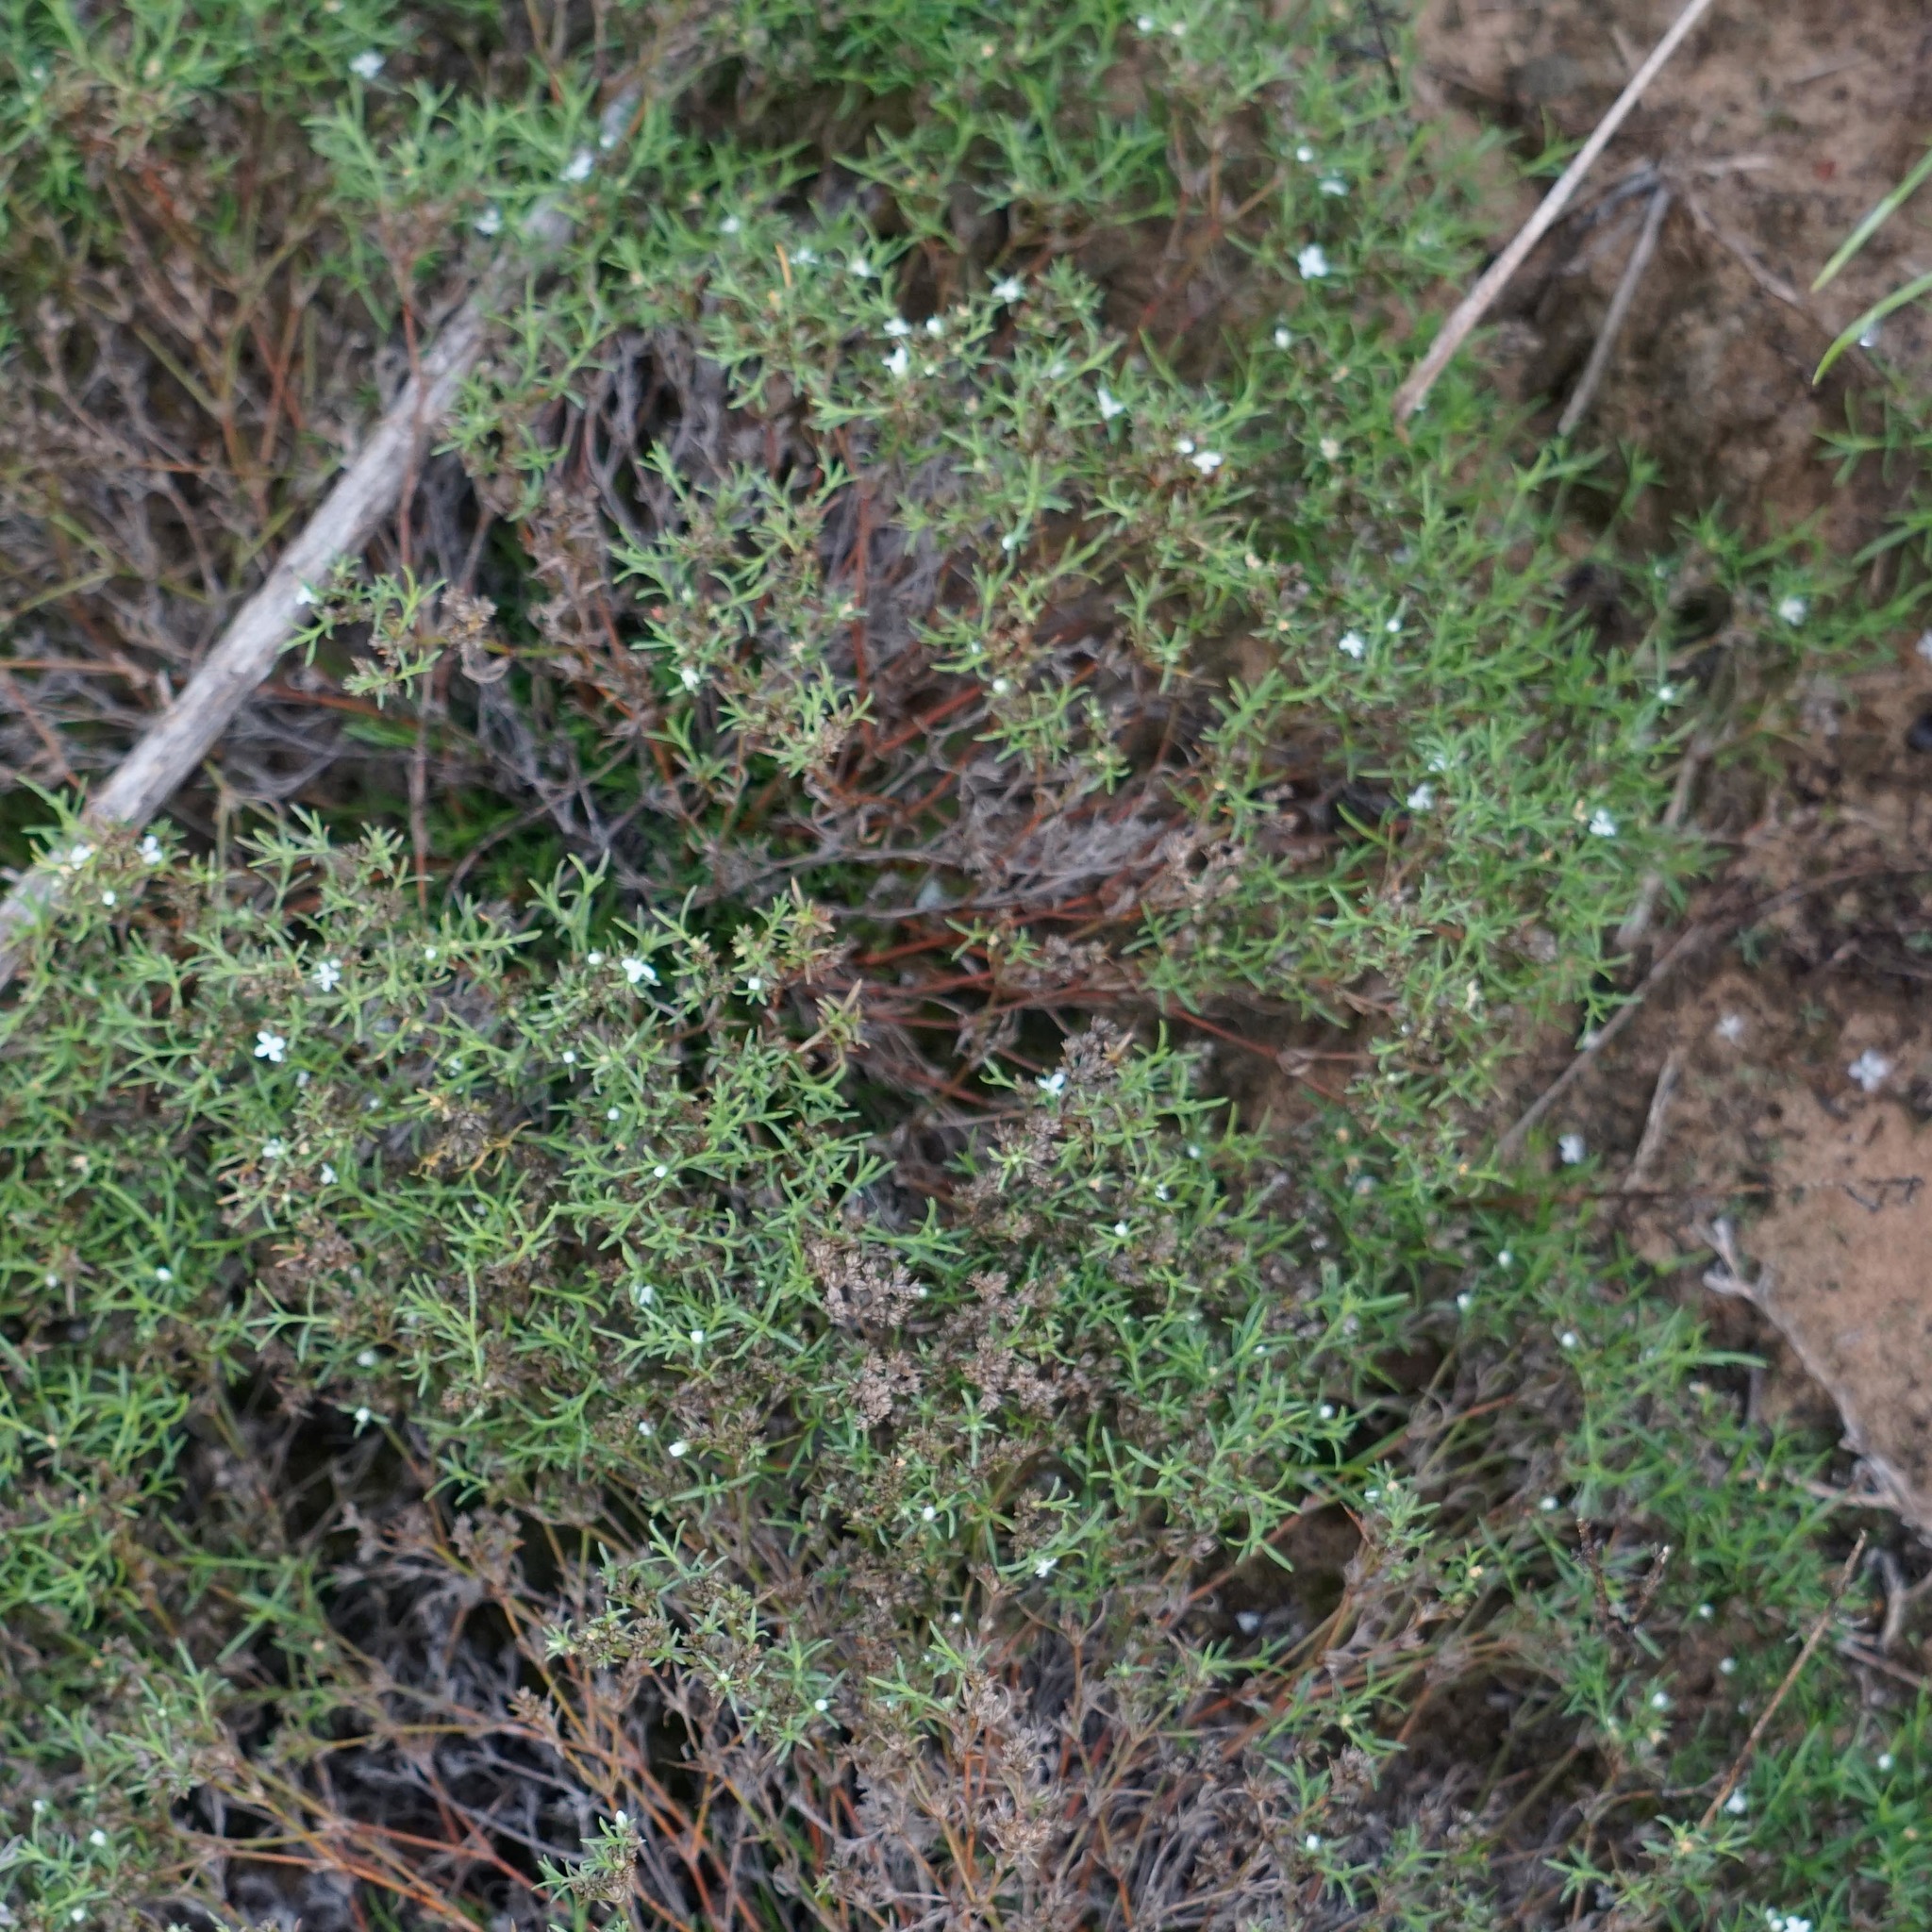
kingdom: Plantae
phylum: Tracheophyta
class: Magnoliopsida
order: Lamiales
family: Tetrachondraceae
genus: Polypremum
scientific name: Polypremum procumbens
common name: Juniper-leaf
